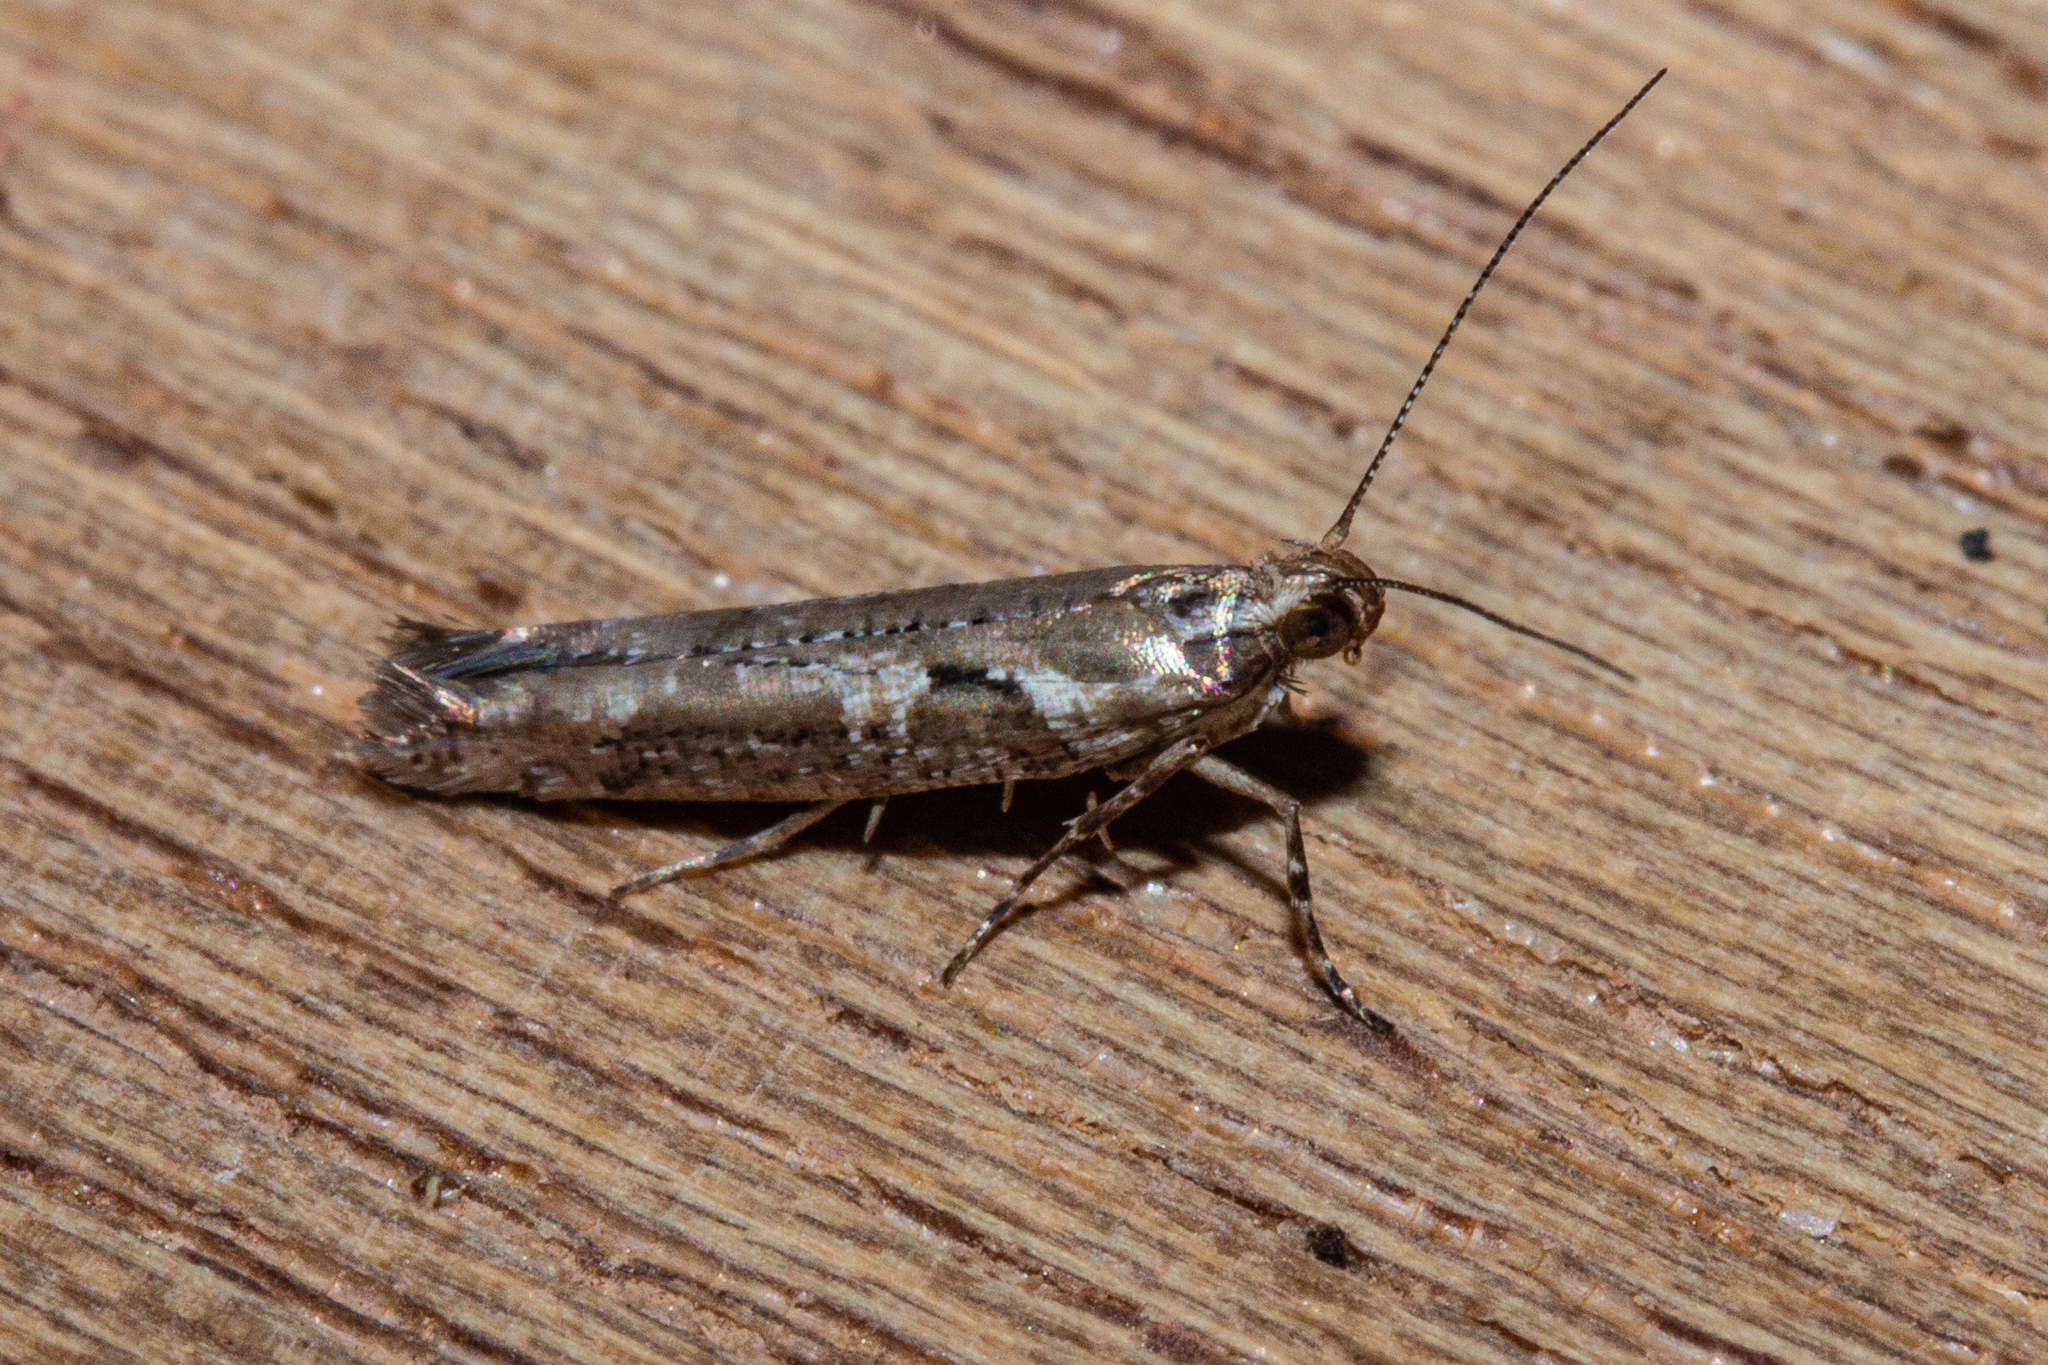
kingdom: Animalia
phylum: Arthropoda
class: Insecta
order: Lepidoptera
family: Glyphipterigidae
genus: Chrysorthenches
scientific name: Chrysorthenches porphyritis
